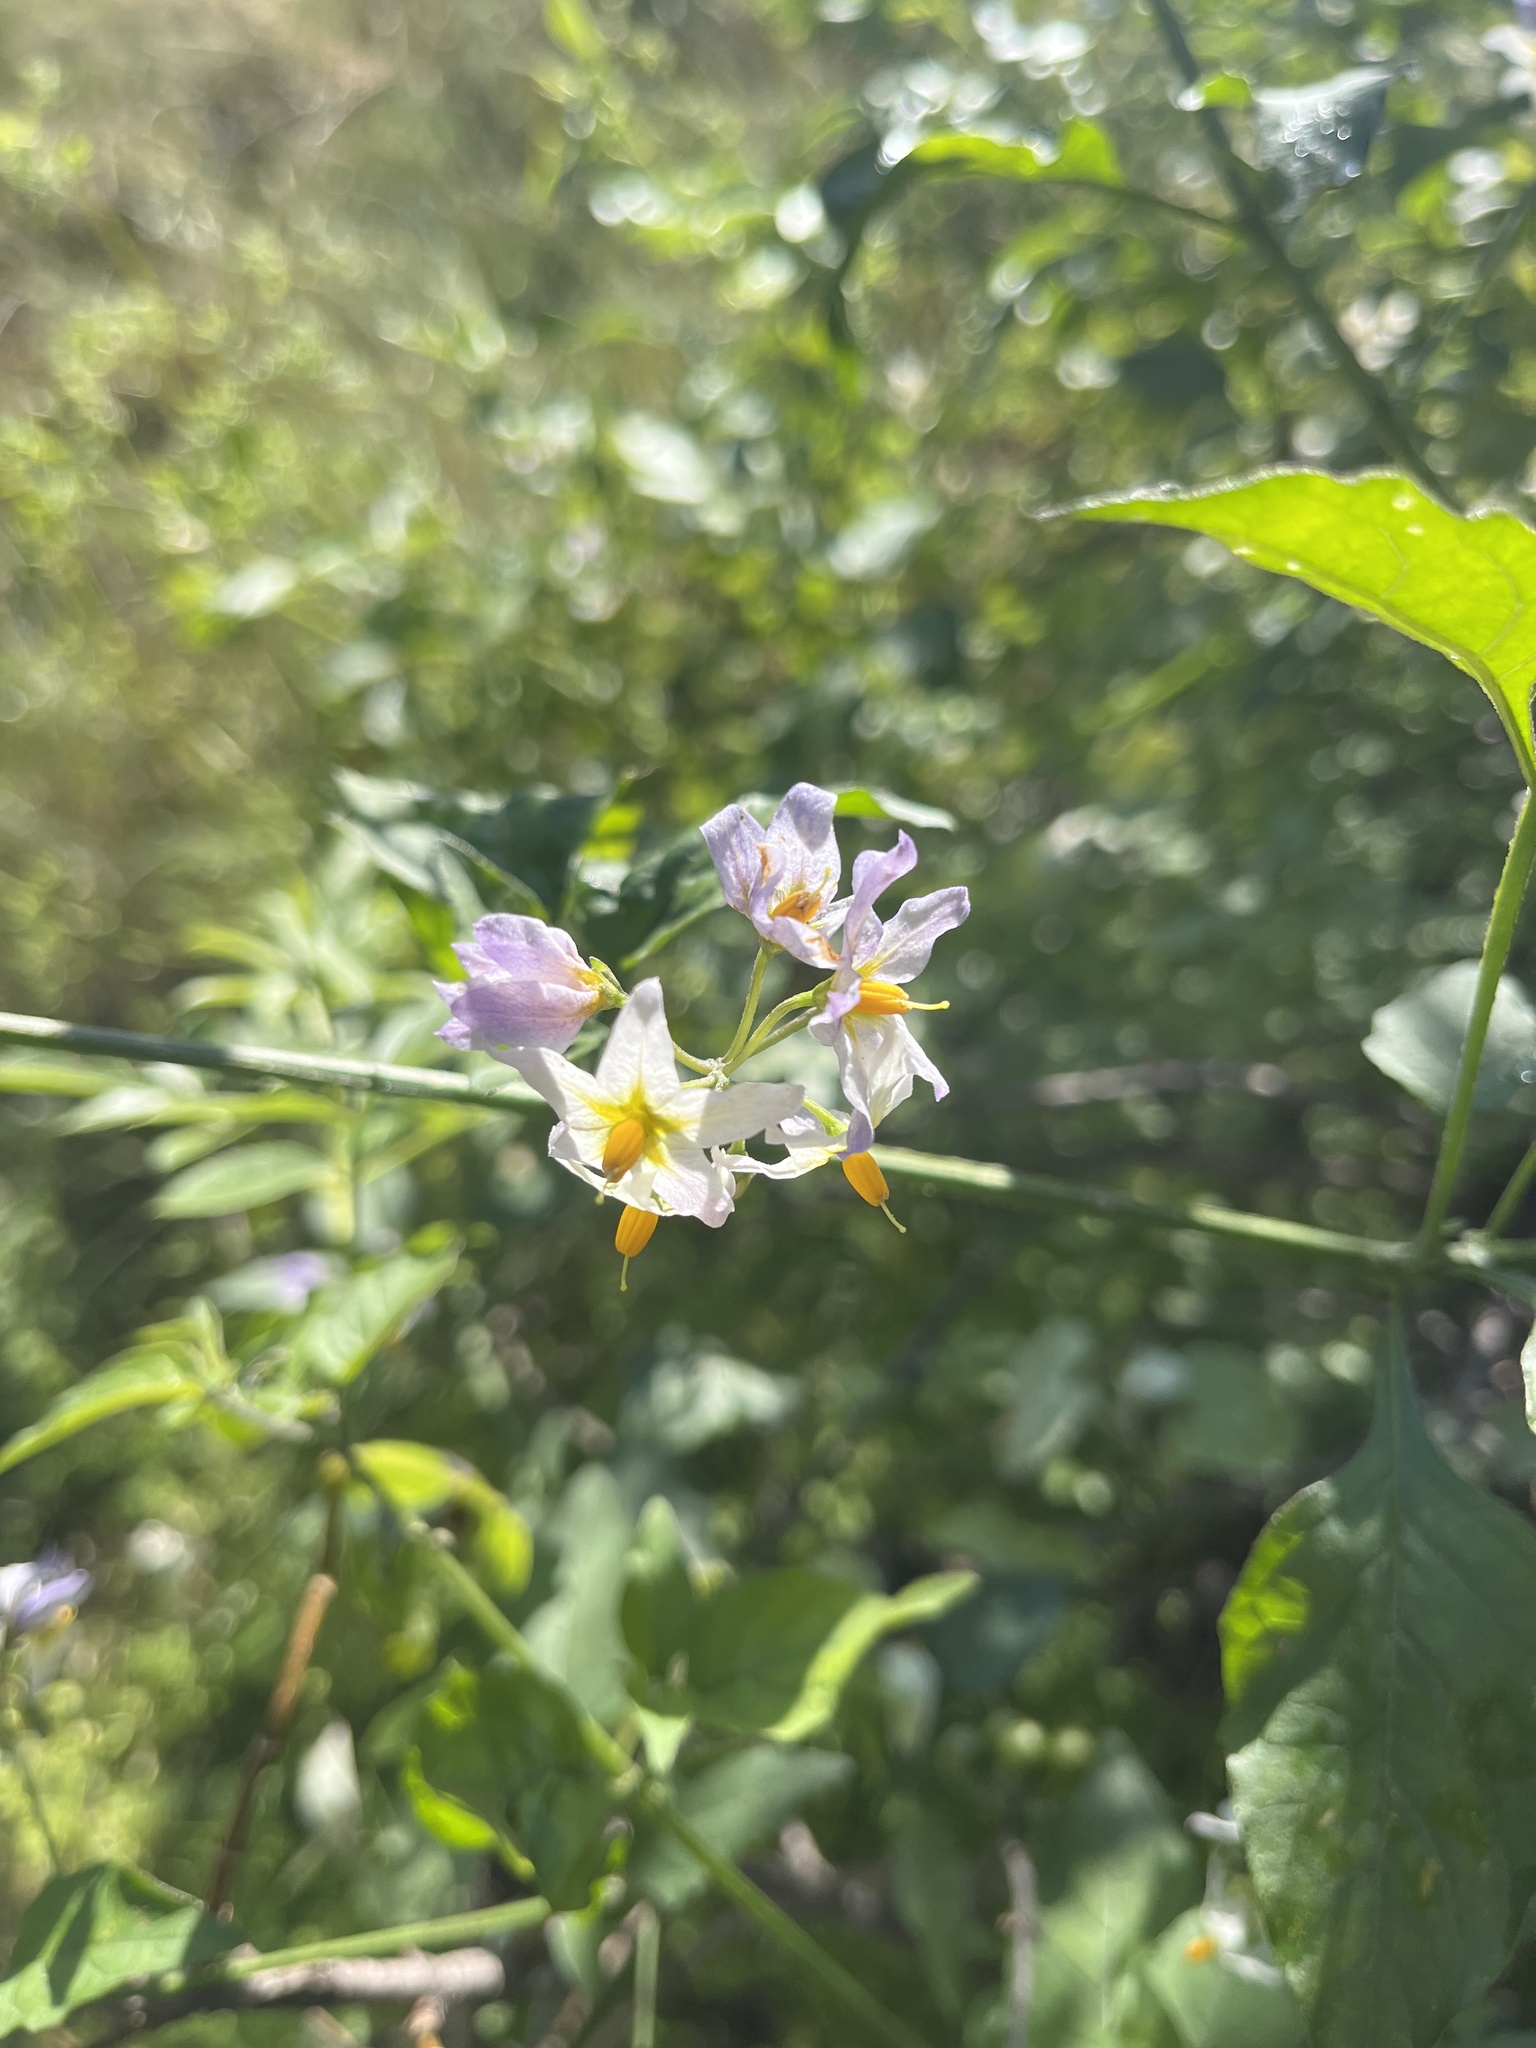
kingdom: Plantae
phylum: Tracheophyta
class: Magnoliopsida
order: Solanales
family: Solanaceae
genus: Solanum
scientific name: Solanum douglasii
